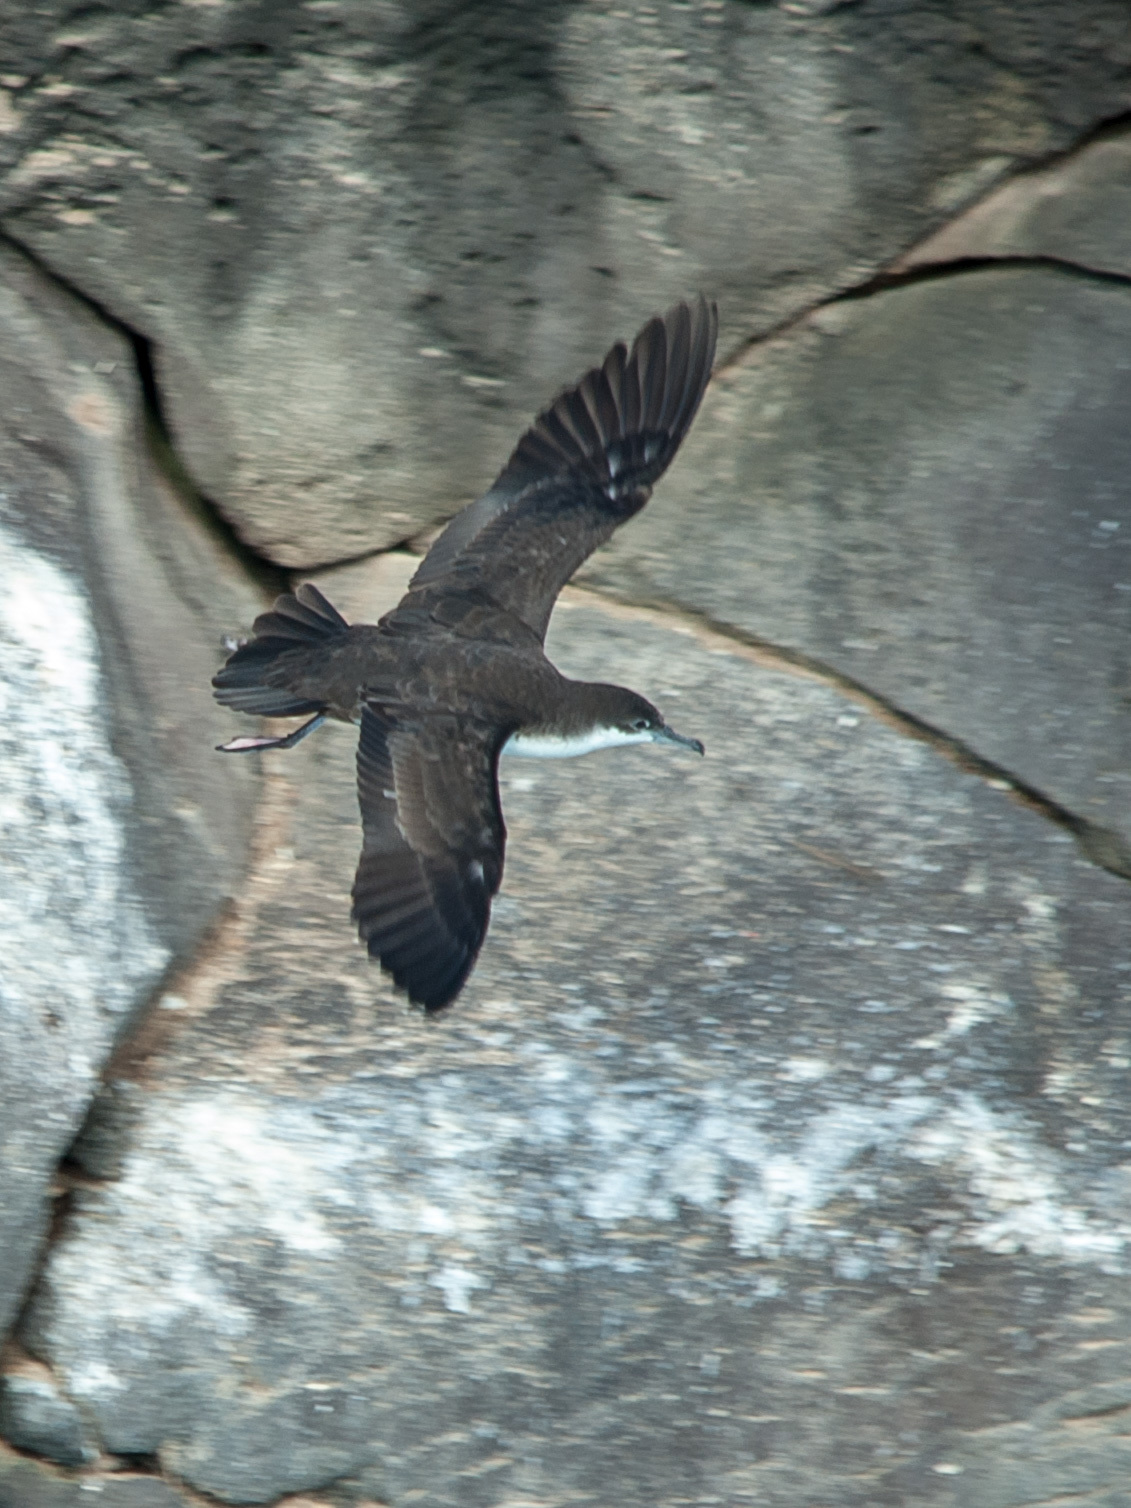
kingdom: Animalia
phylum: Chordata
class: Aves
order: Procellariiformes
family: Procellariidae
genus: Puffinus
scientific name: Puffinus subalaris
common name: Galapagos shearwater
